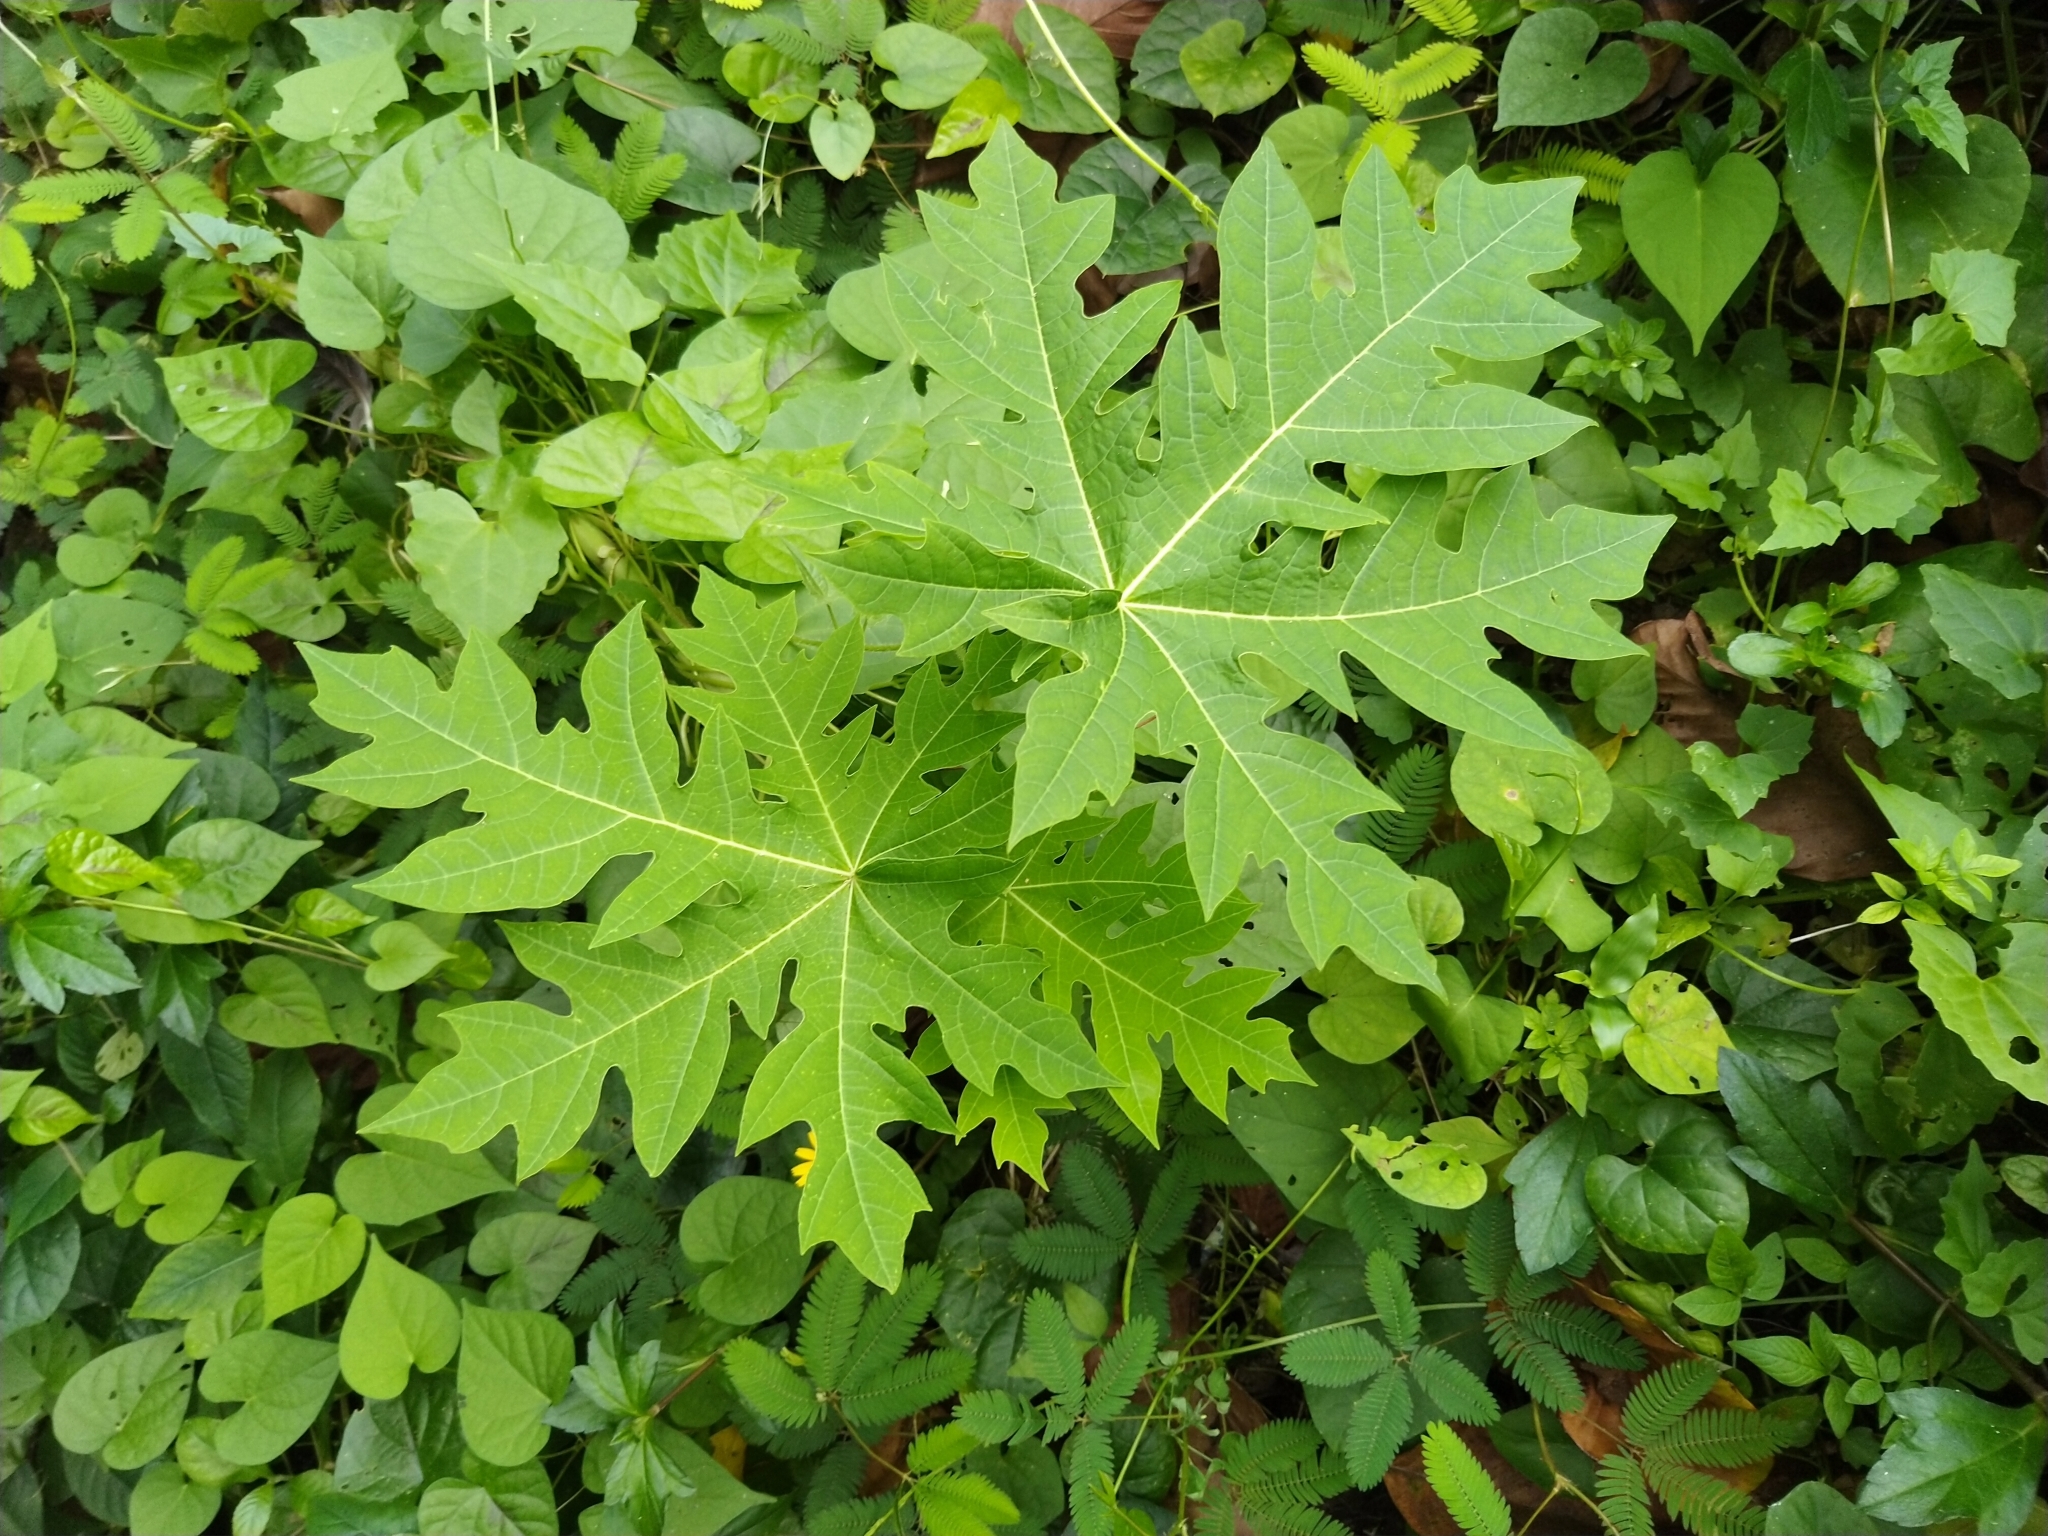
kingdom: Plantae
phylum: Tracheophyta
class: Magnoliopsida
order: Brassicales
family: Caricaceae
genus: Carica
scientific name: Carica papaya
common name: Papaya
